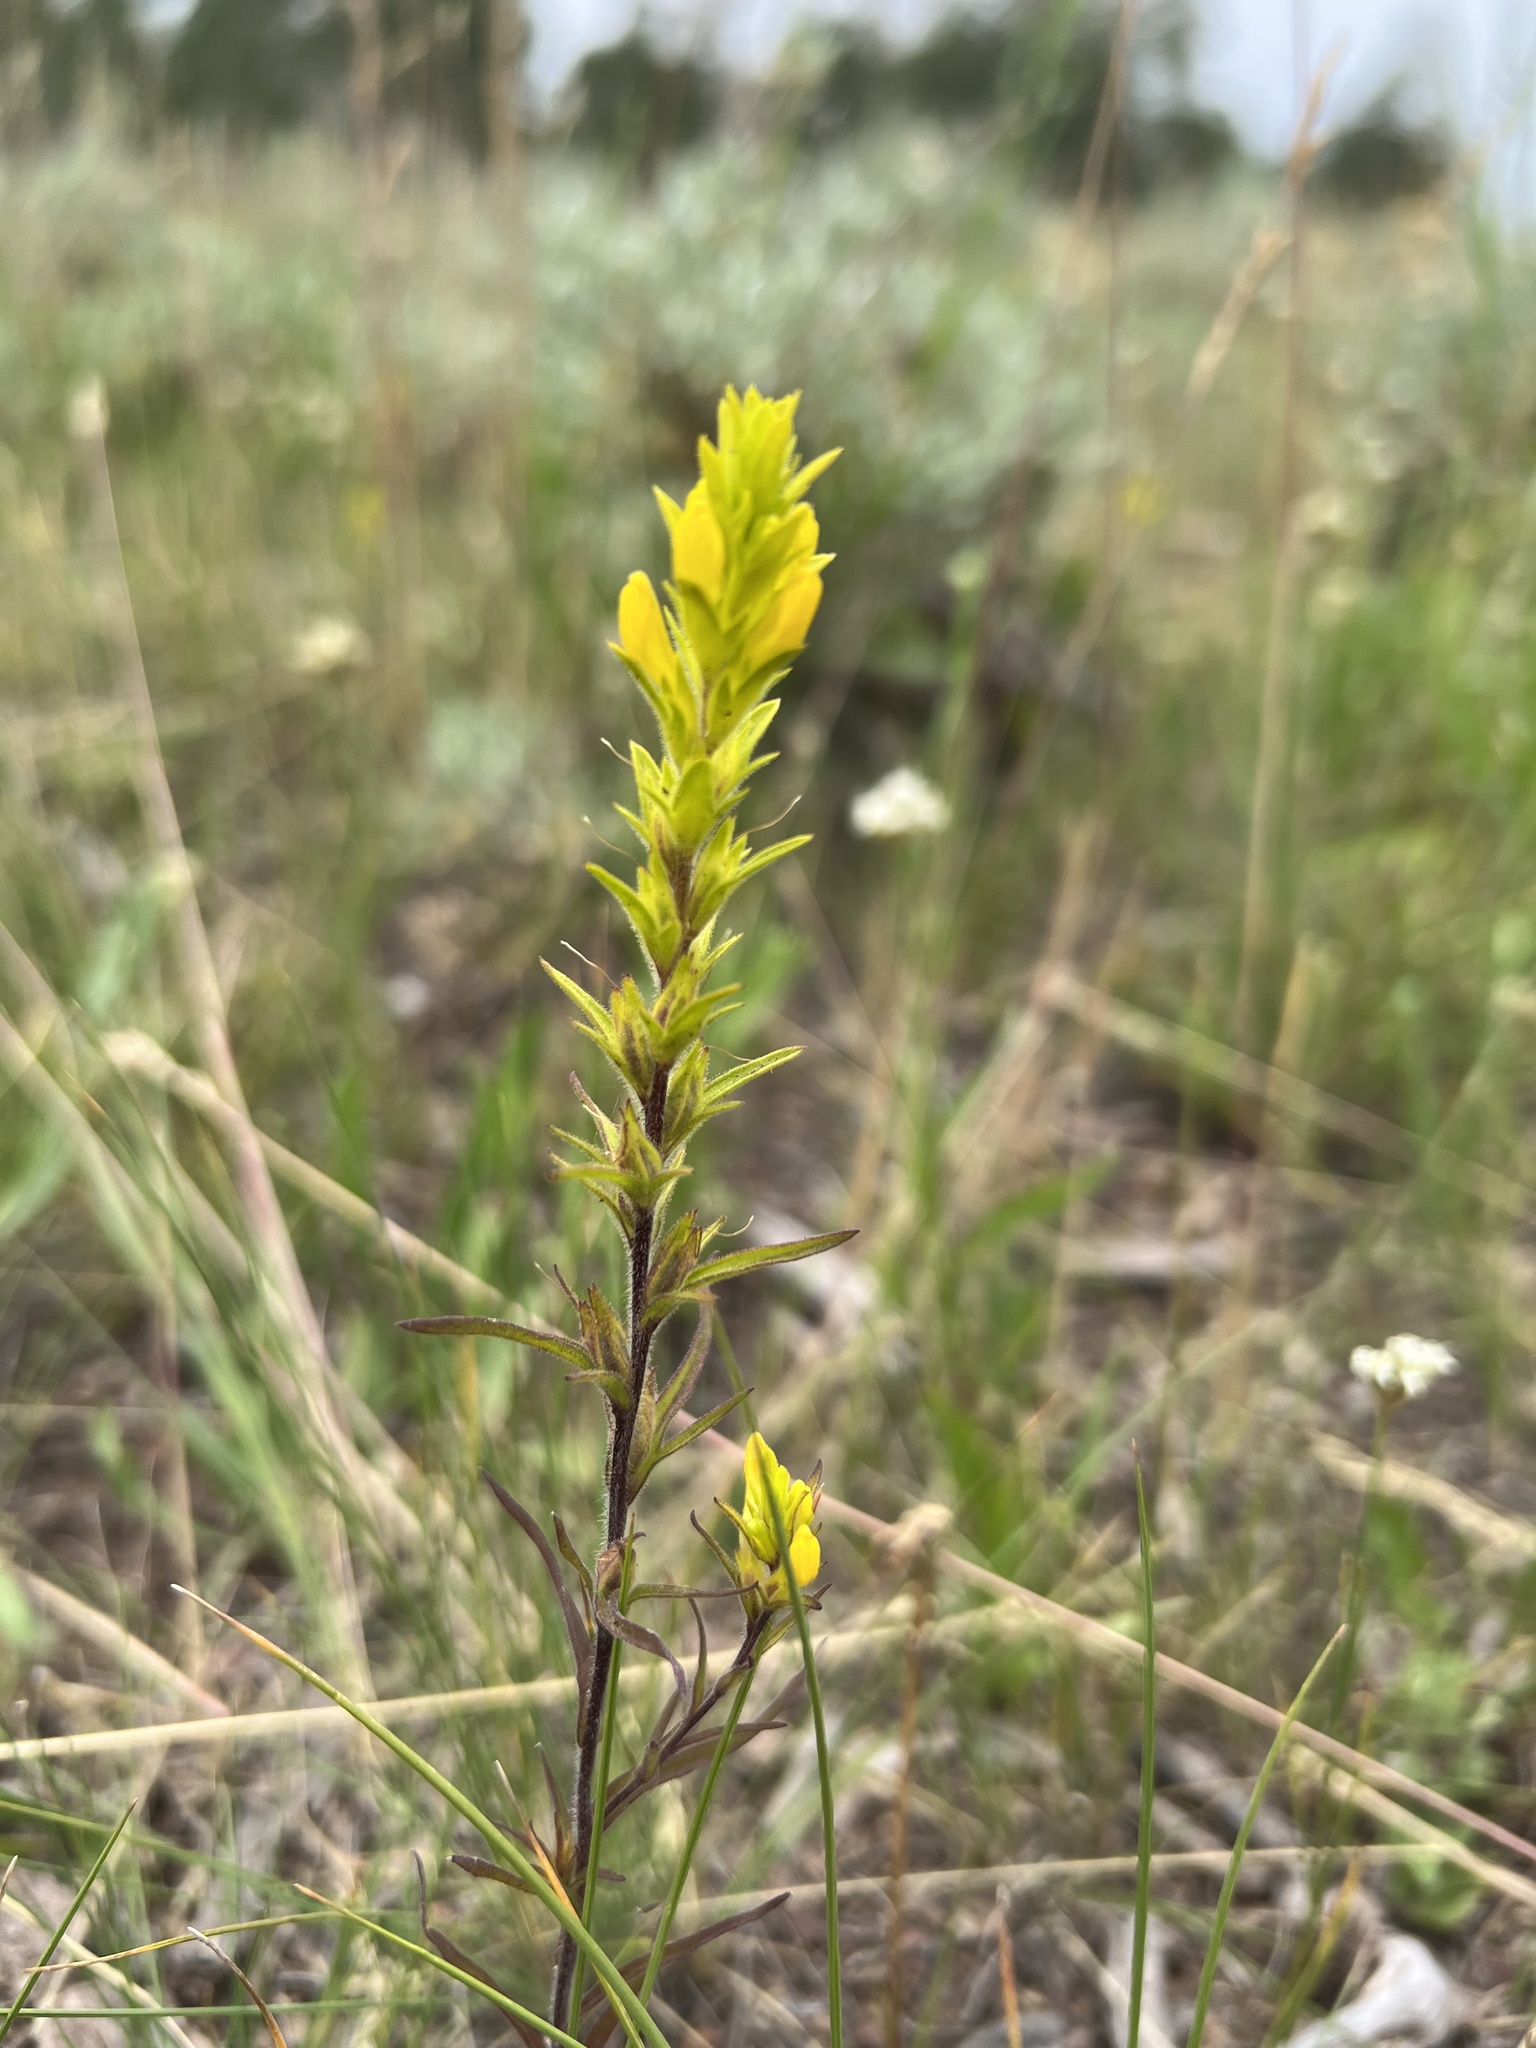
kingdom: Plantae
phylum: Tracheophyta
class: Magnoliopsida
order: Lamiales
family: Orobanchaceae
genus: Orthocarpus
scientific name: Orthocarpus luteus
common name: Golden-tongue owl's-clover
